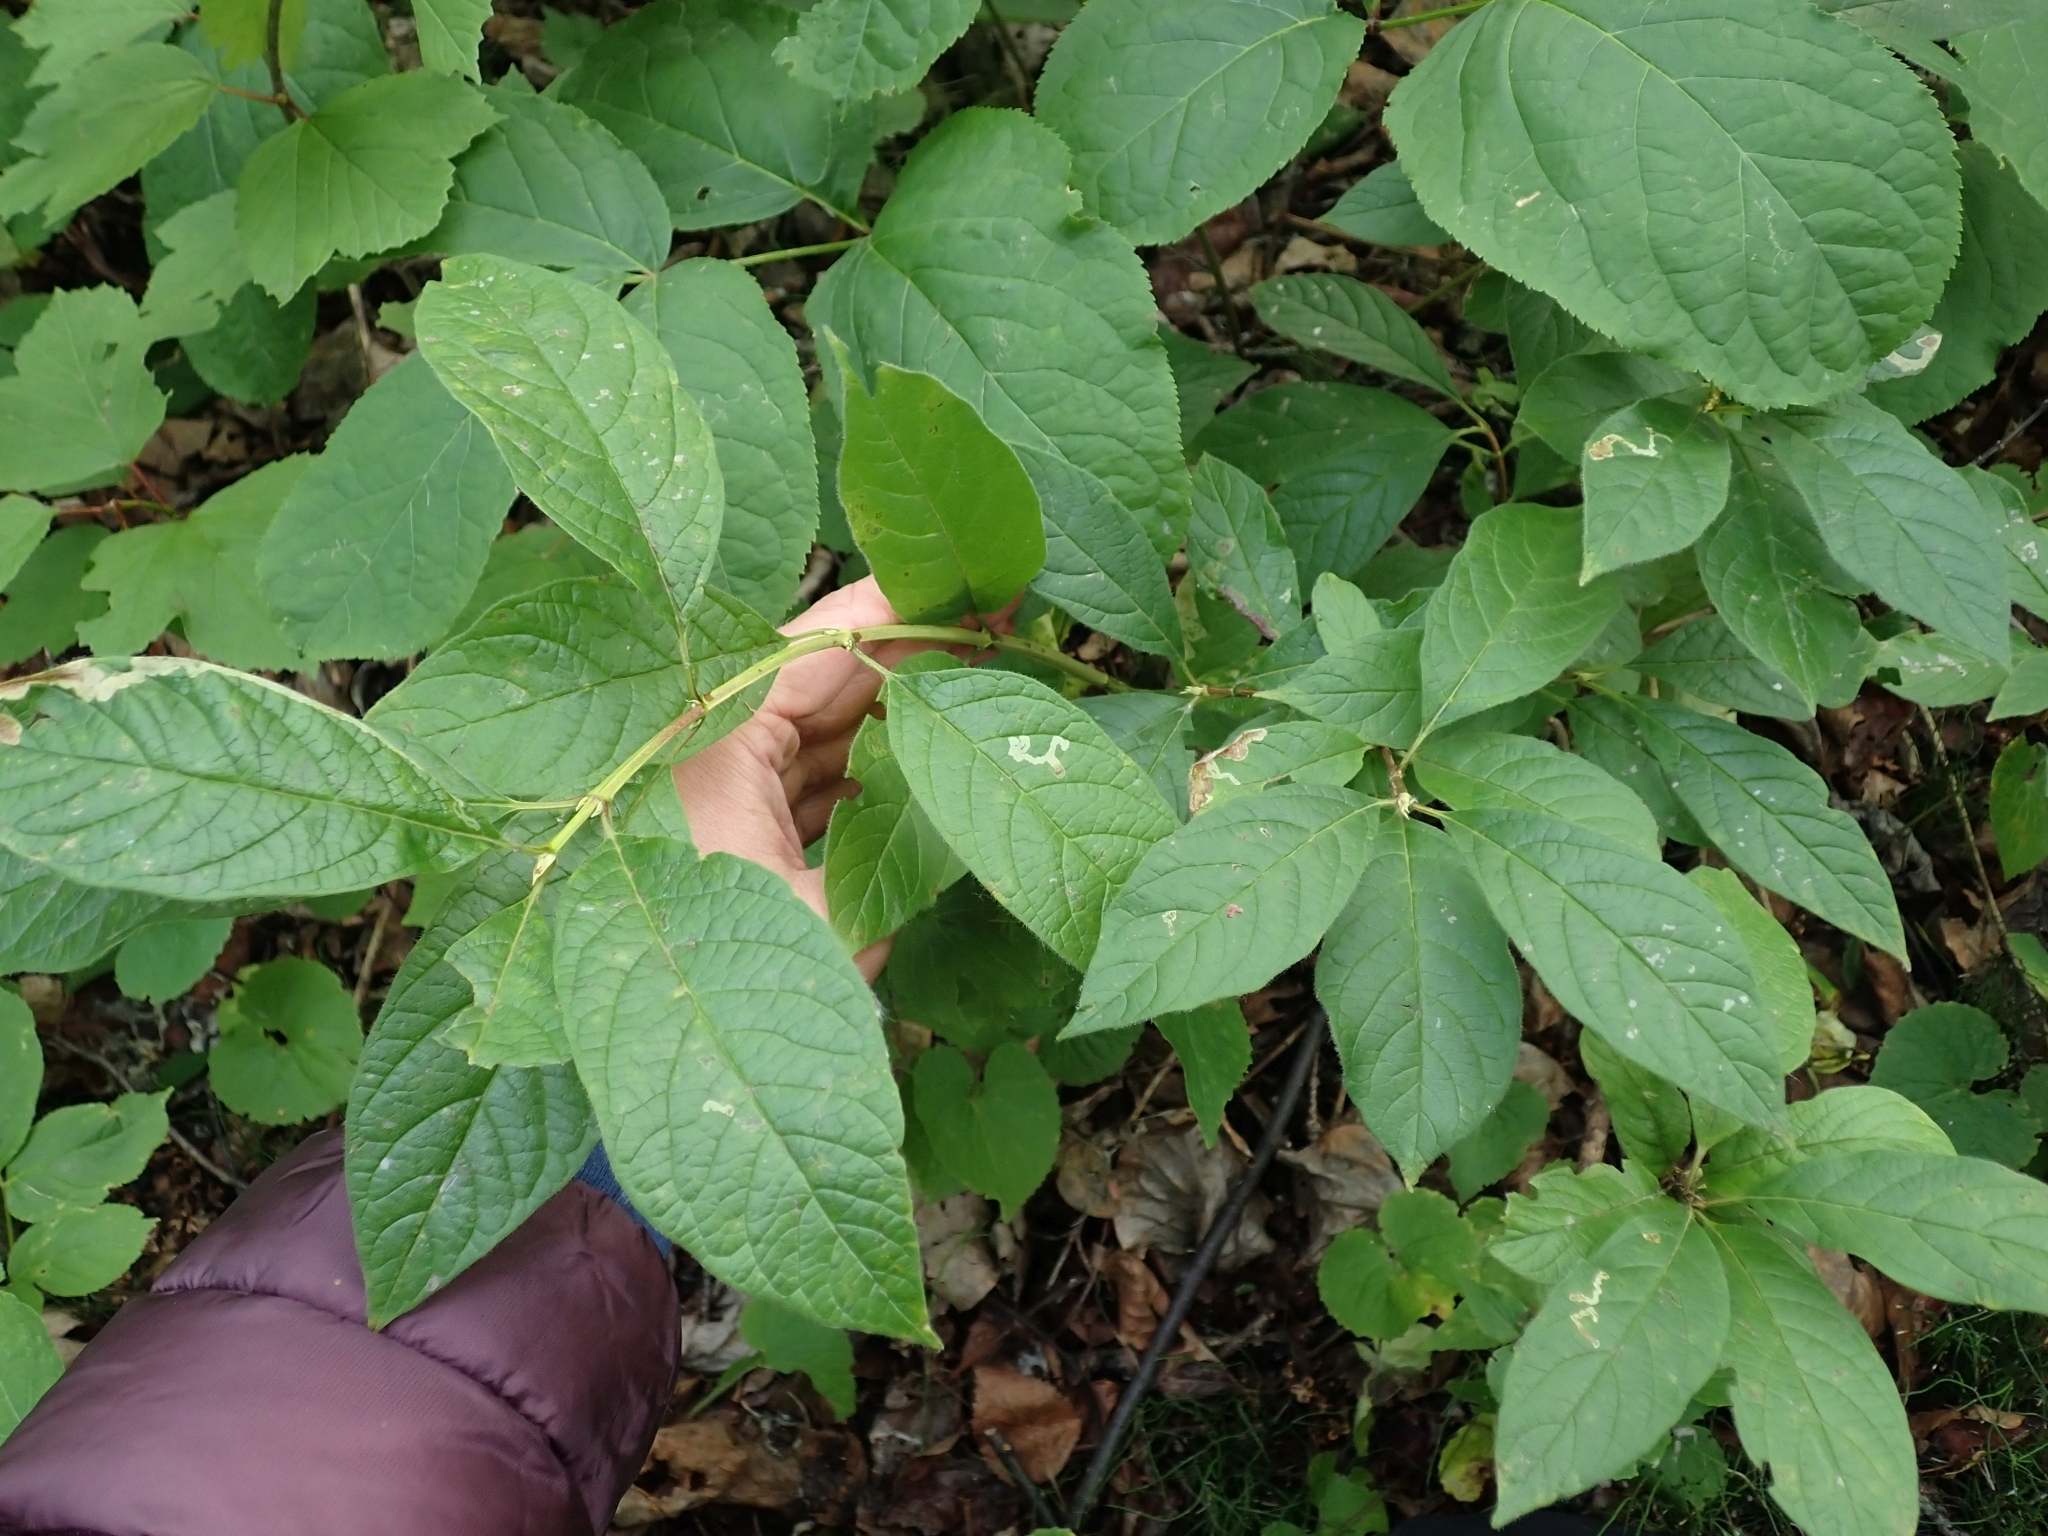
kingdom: Plantae
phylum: Tracheophyta
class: Magnoliopsida
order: Dipsacales
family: Caprifoliaceae
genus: Lonicera
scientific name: Lonicera involucrata
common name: Californian honeysuckle
